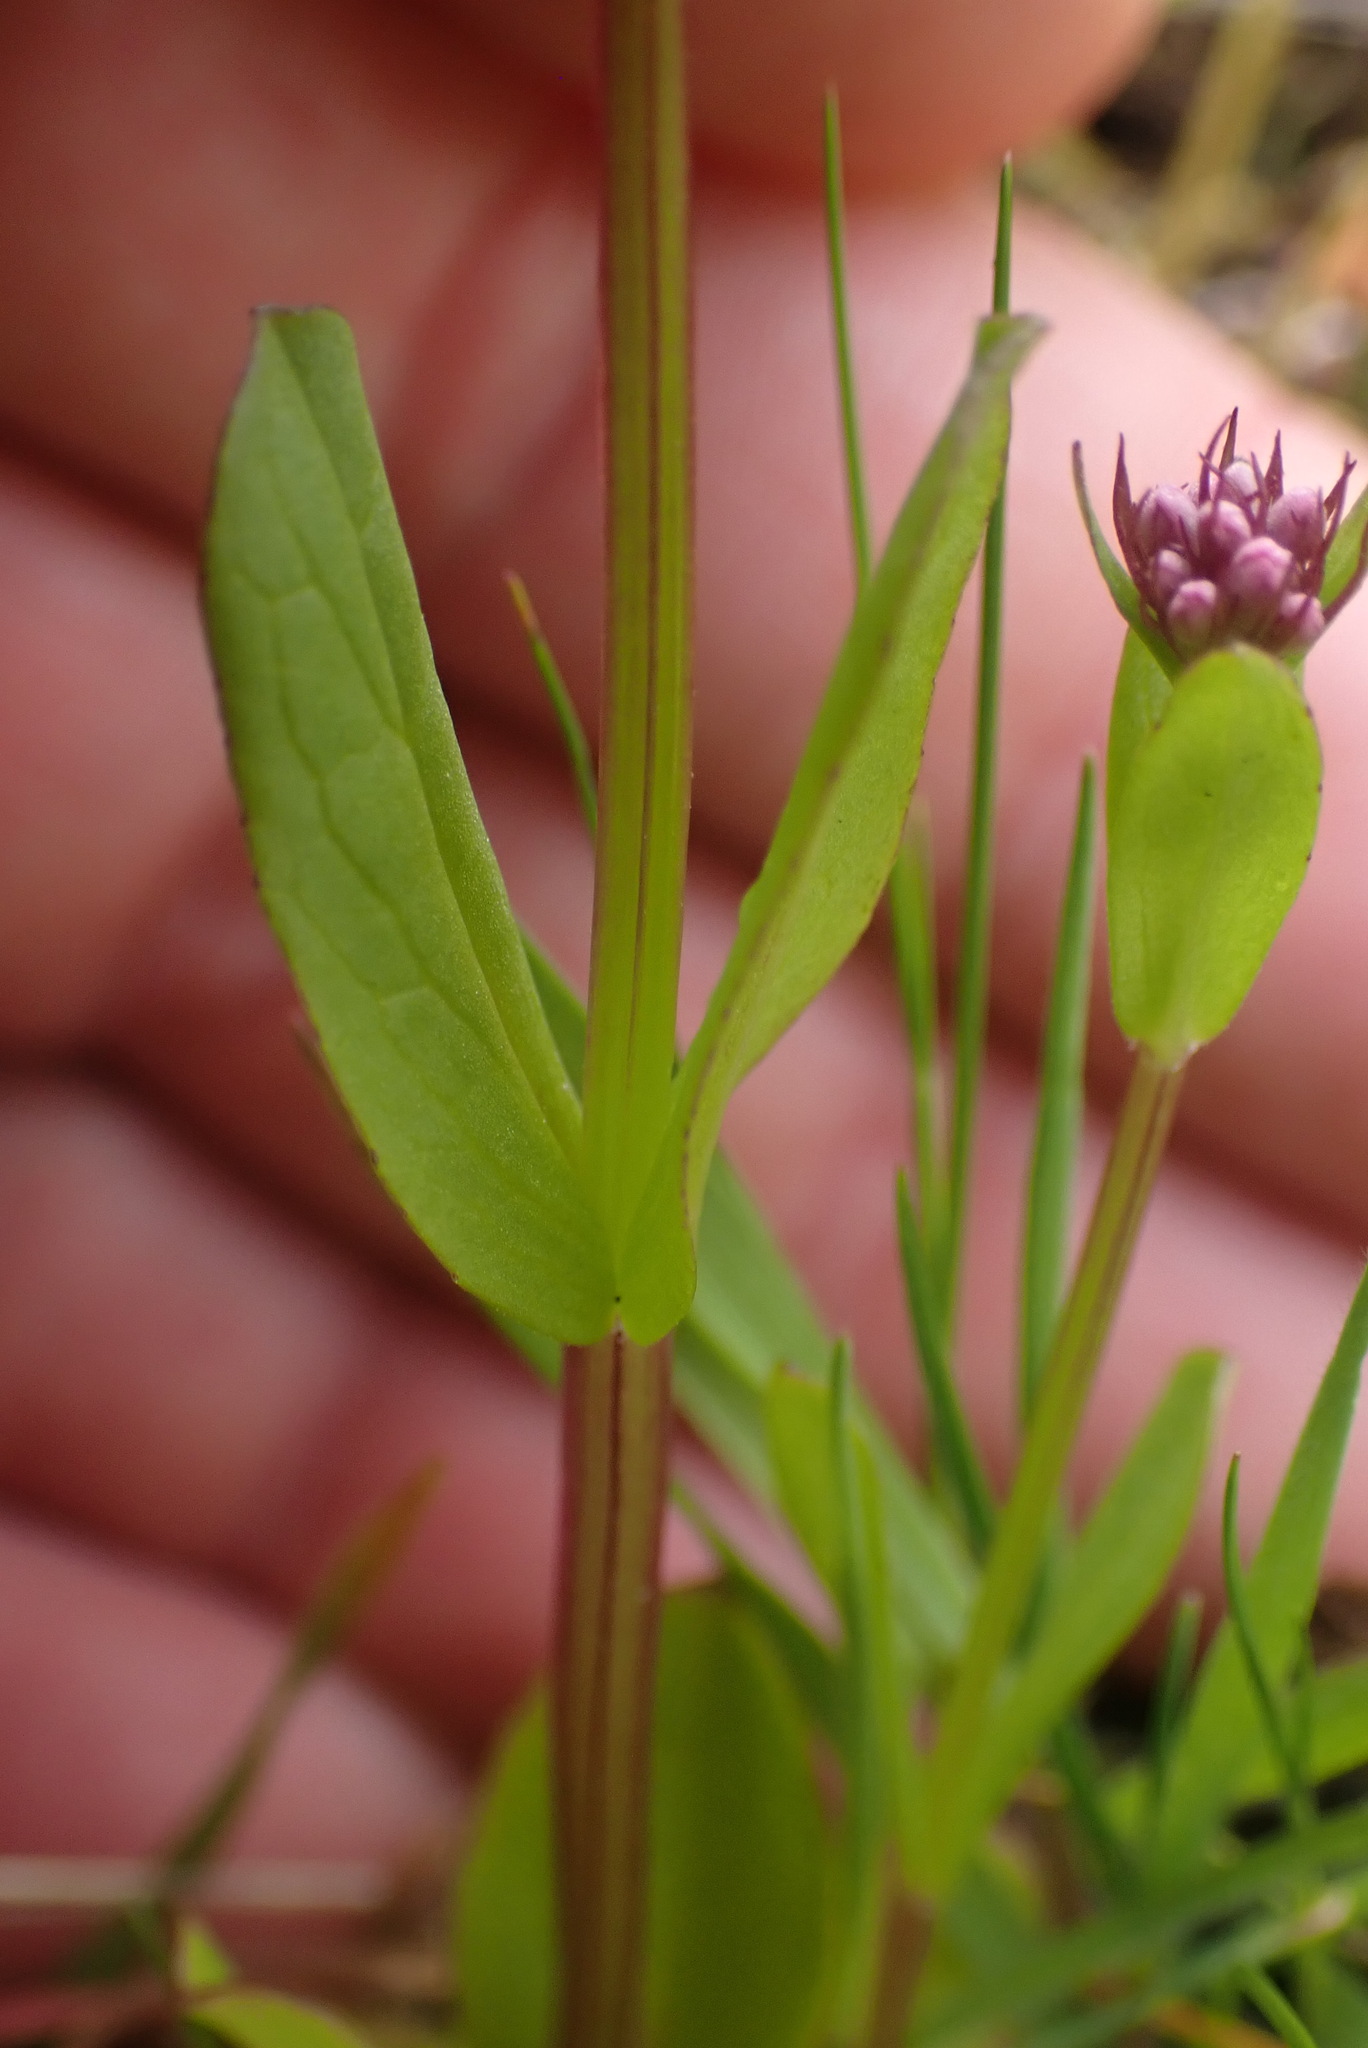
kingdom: Plantae
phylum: Tracheophyta
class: Magnoliopsida
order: Dipsacales
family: Caprifoliaceae
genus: Plectritis
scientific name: Plectritis congesta
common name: Pink plectritis
